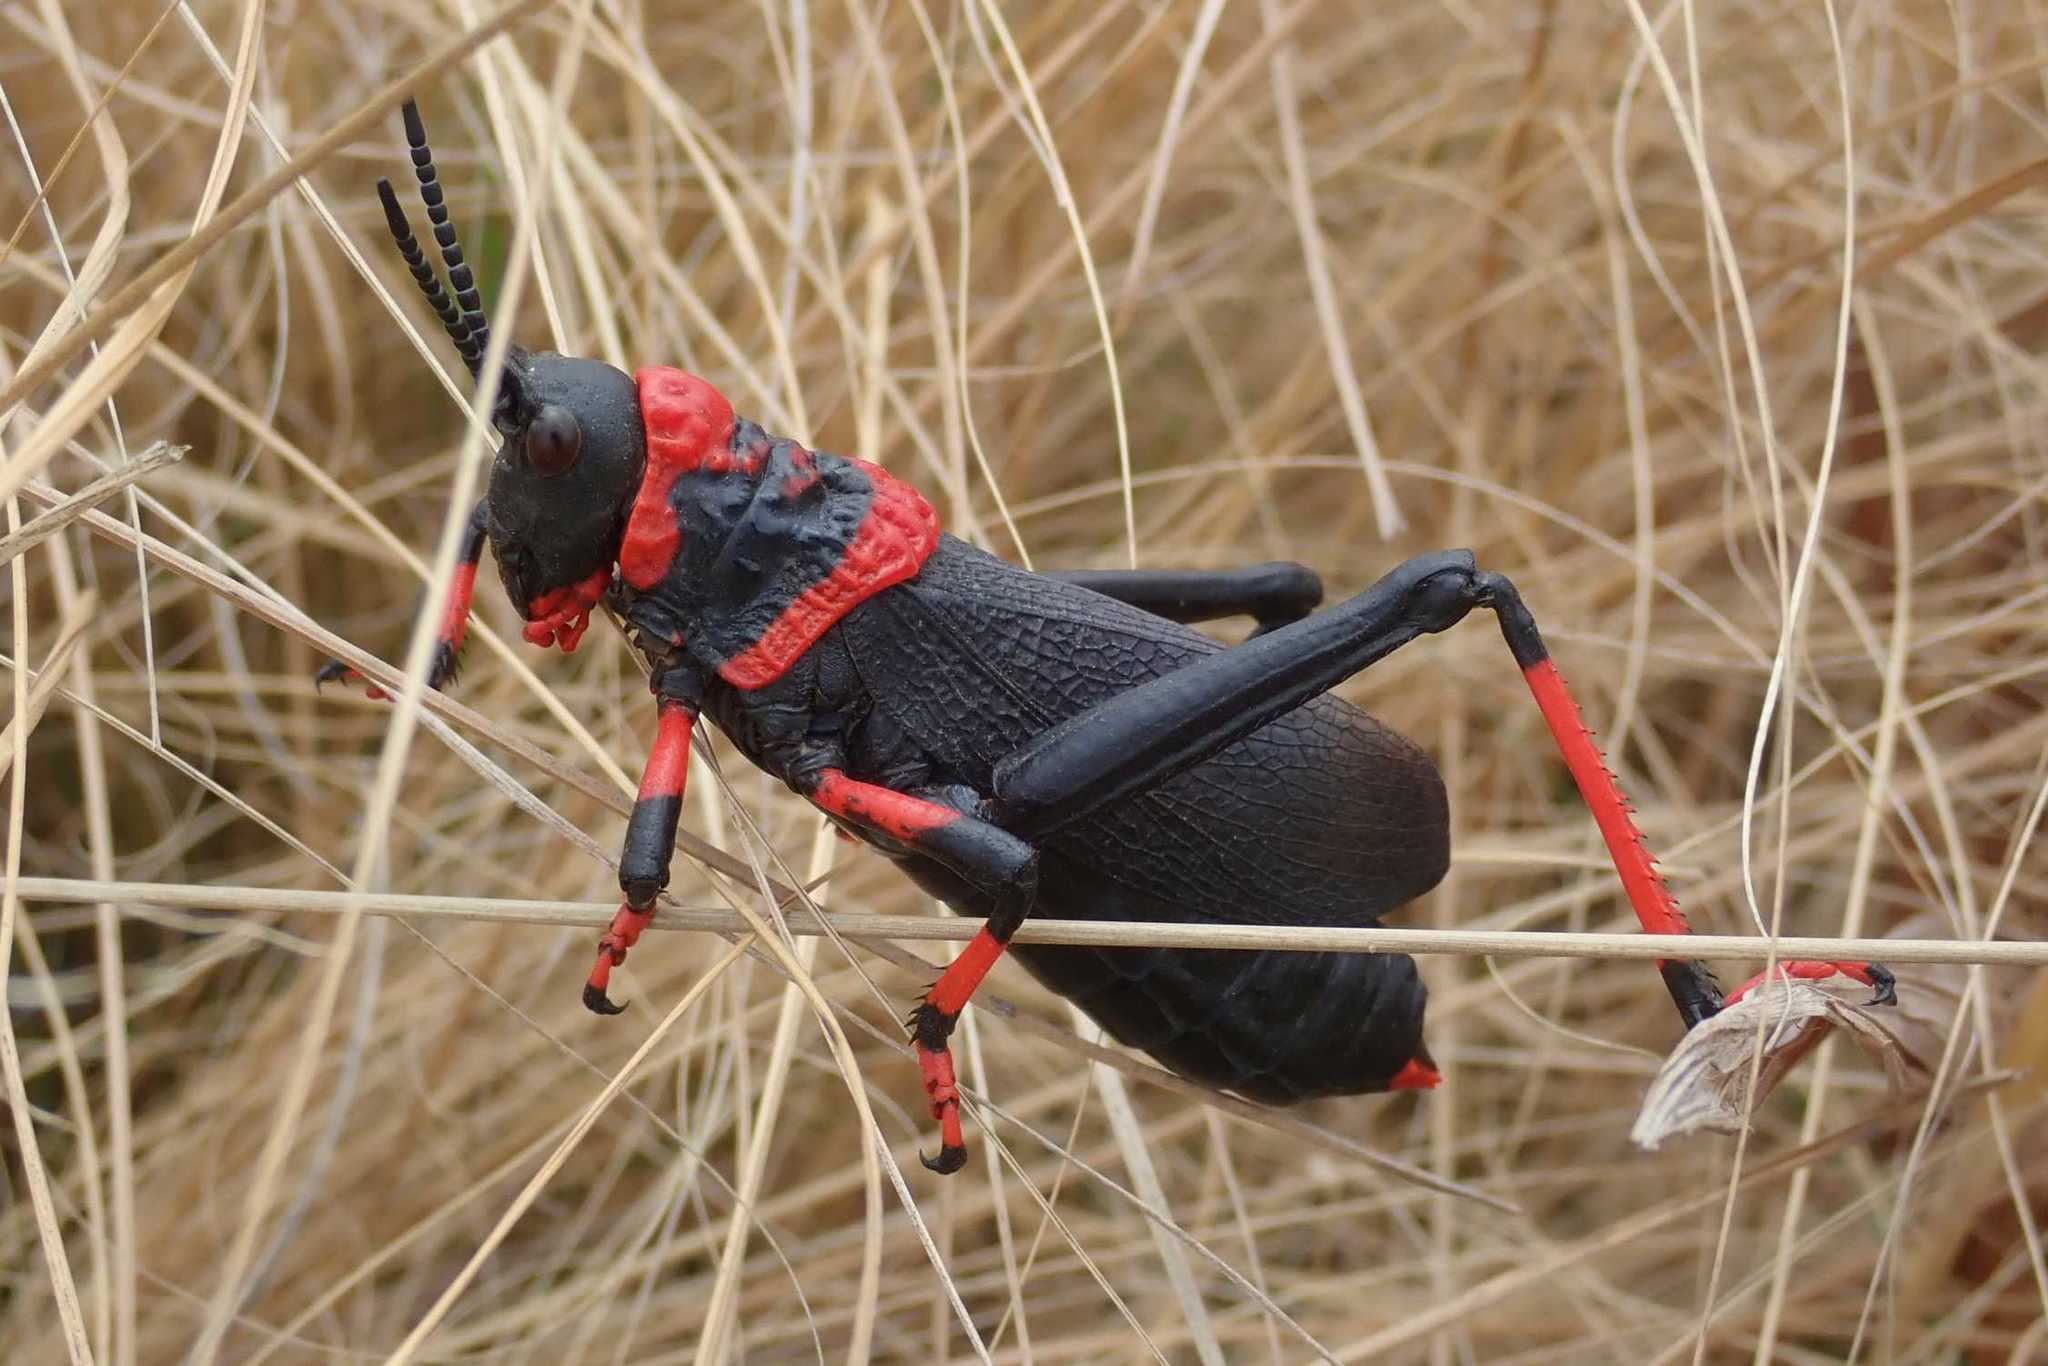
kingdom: Animalia
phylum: Arthropoda
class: Insecta
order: Orthoptera
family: Pyrgomorphidae
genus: Dictyophorus
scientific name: Dictyophorus spumans
